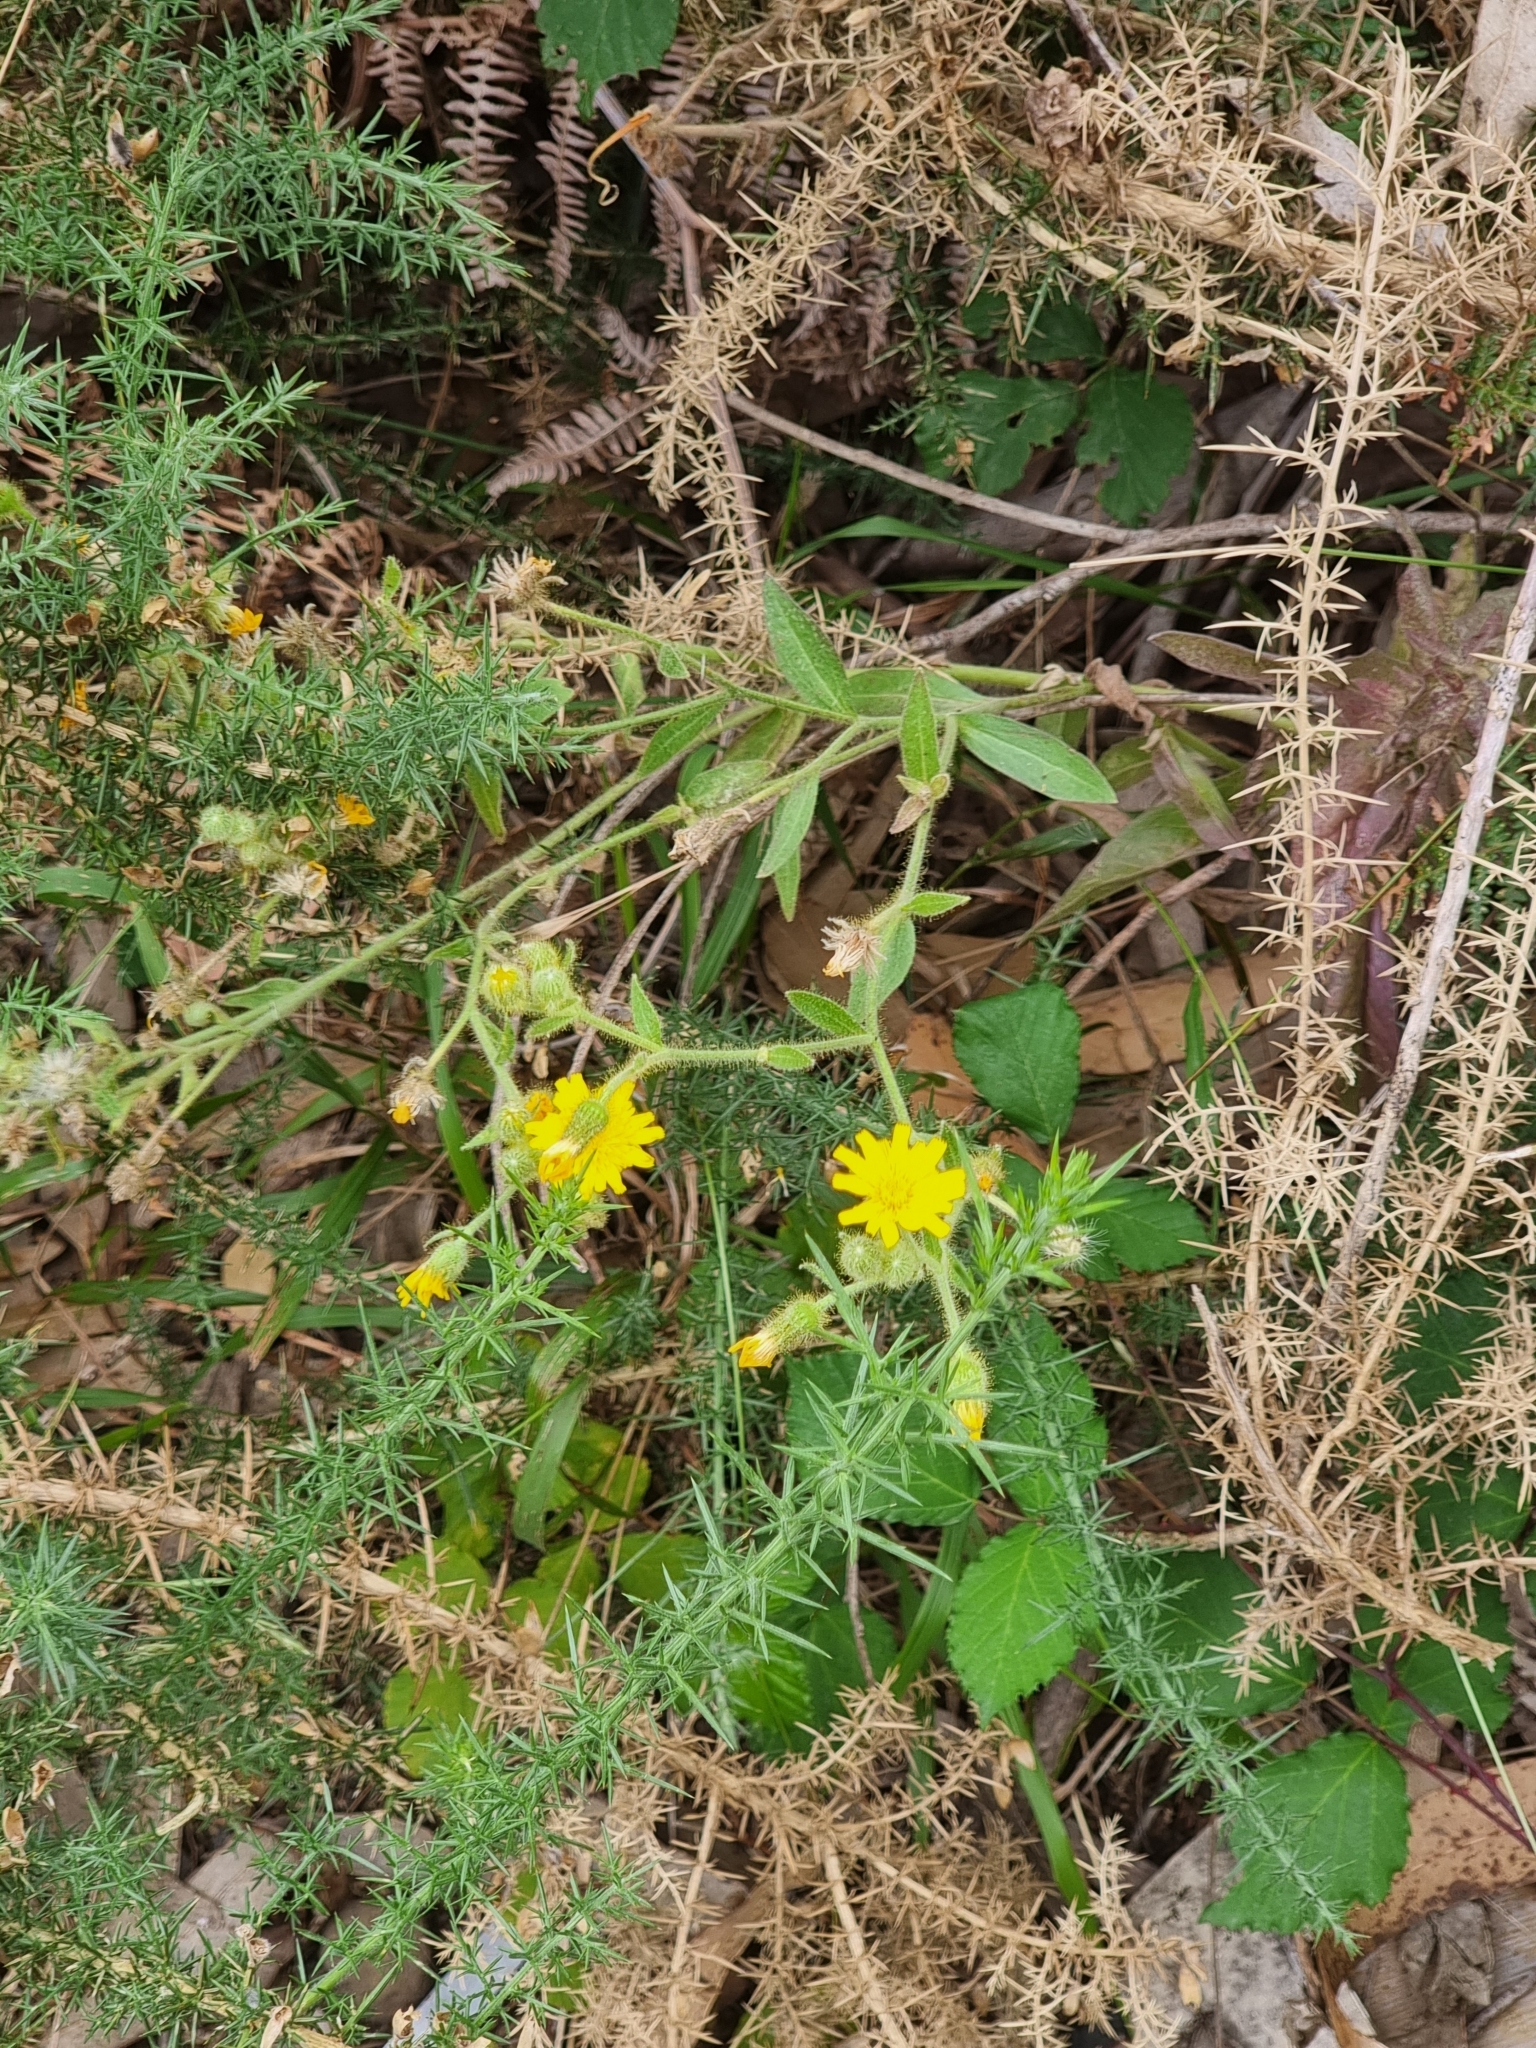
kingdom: Plantae
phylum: Tracheophyta
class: Magnoliopsida
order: Asterales
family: Asteraceae
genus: Andryala
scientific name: Andryala glandulosa
